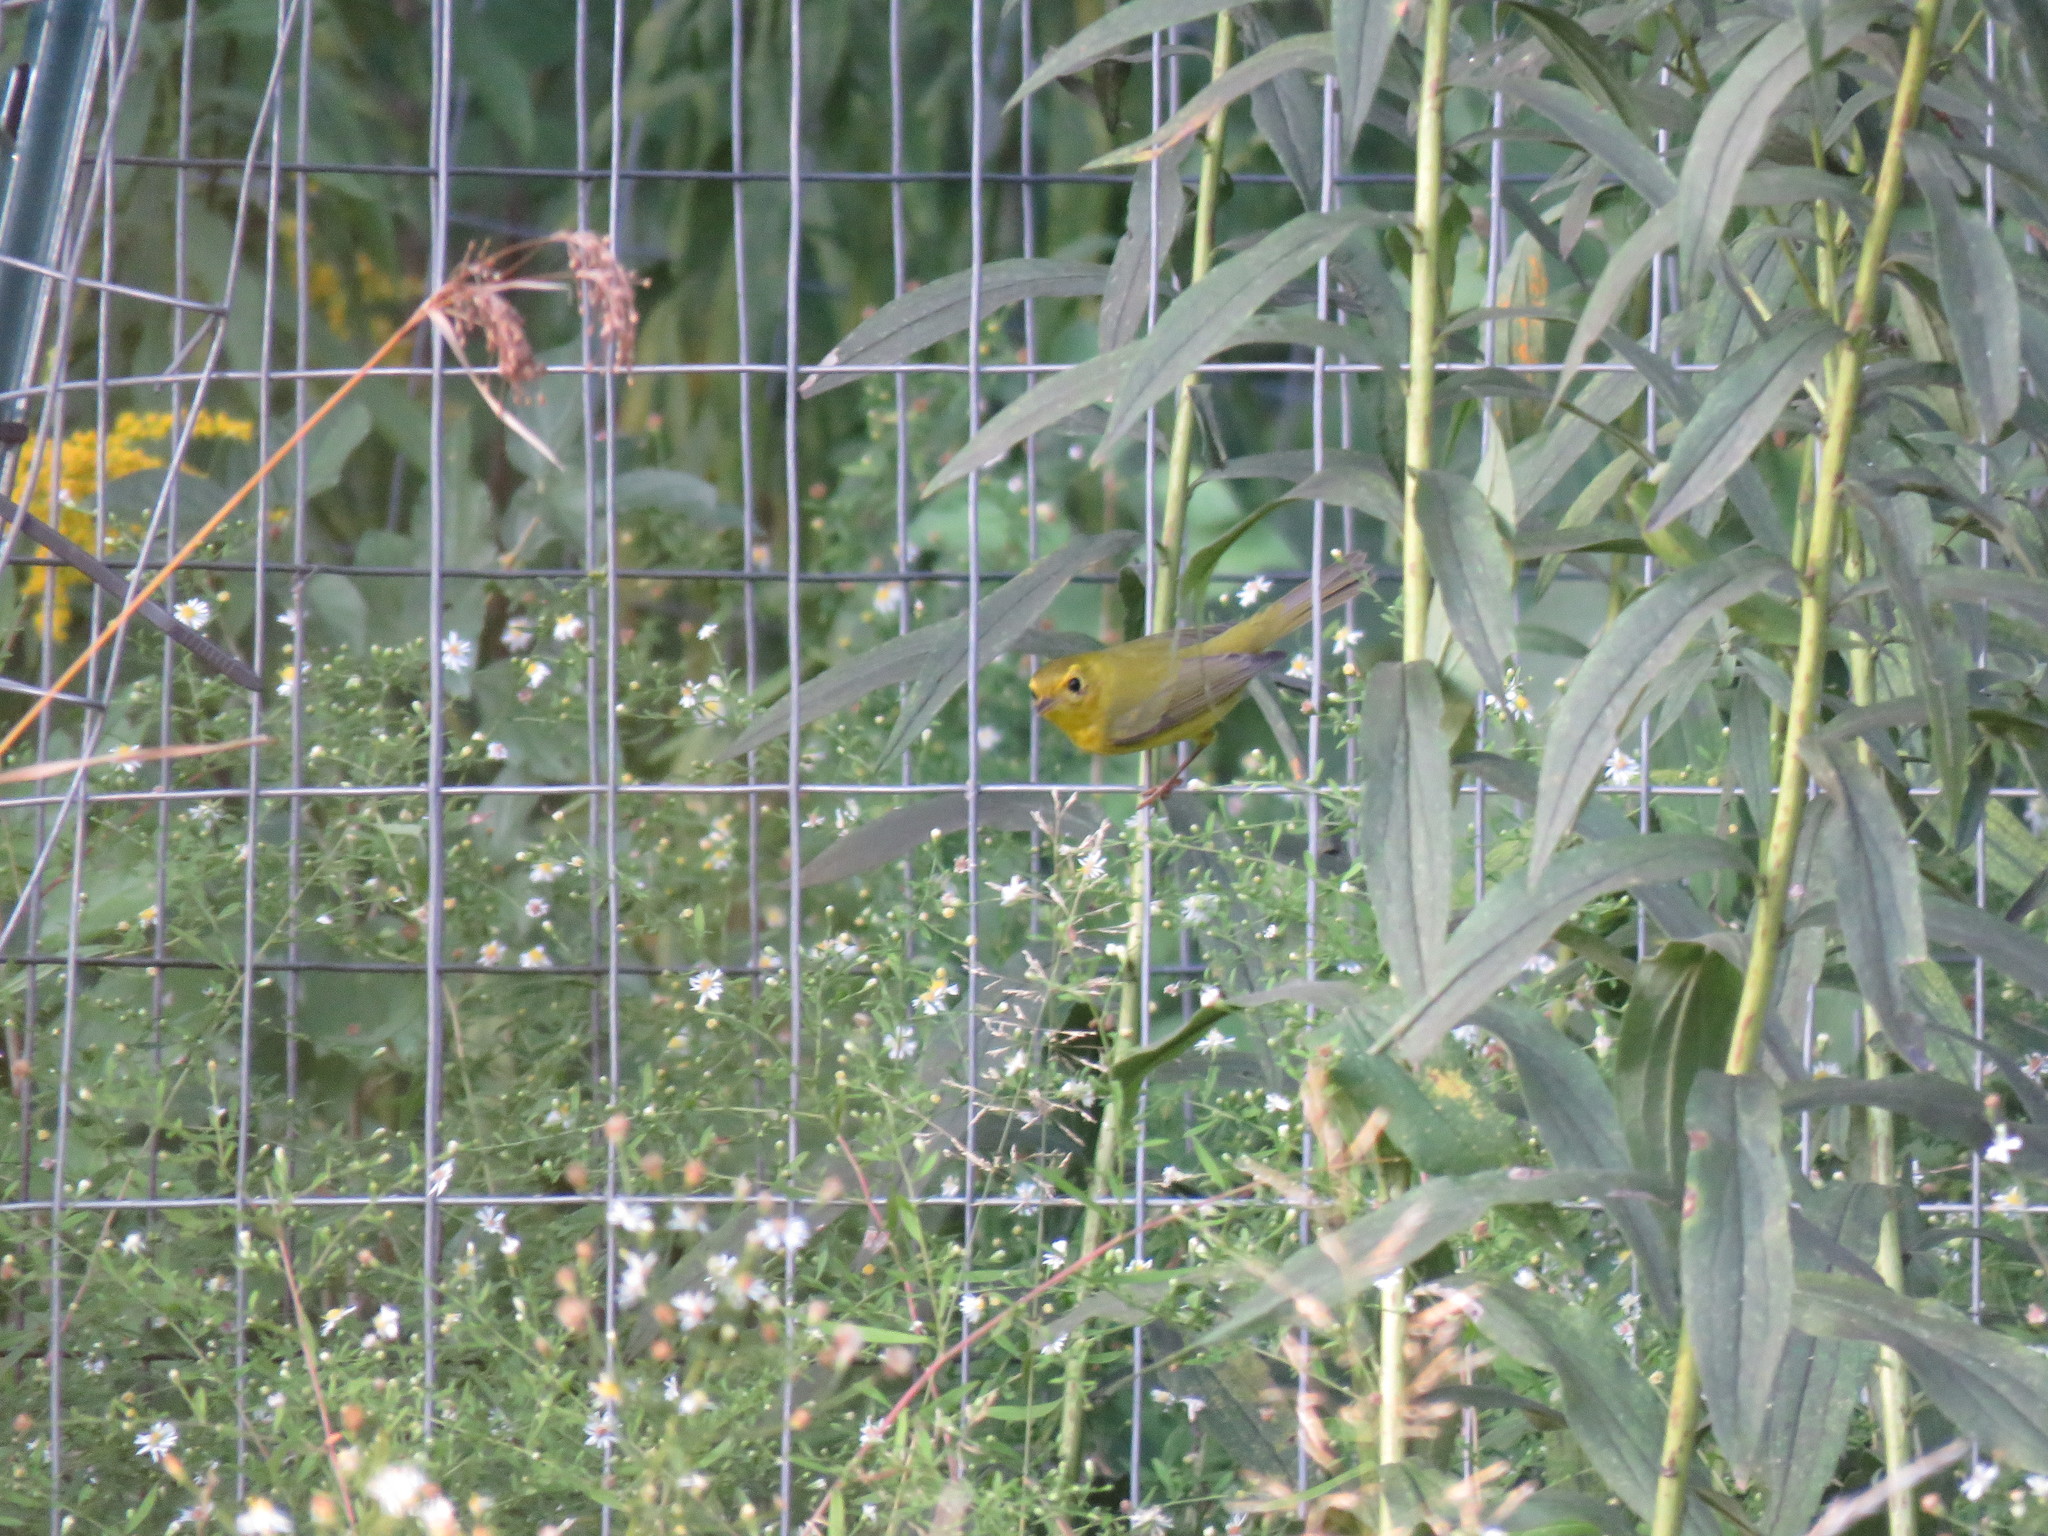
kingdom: Animalia
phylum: Chordata
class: Aves
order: Passeriformes
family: Parulidae
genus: Cardellina
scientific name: Cardellina pusilla
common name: Wilson's warbler
